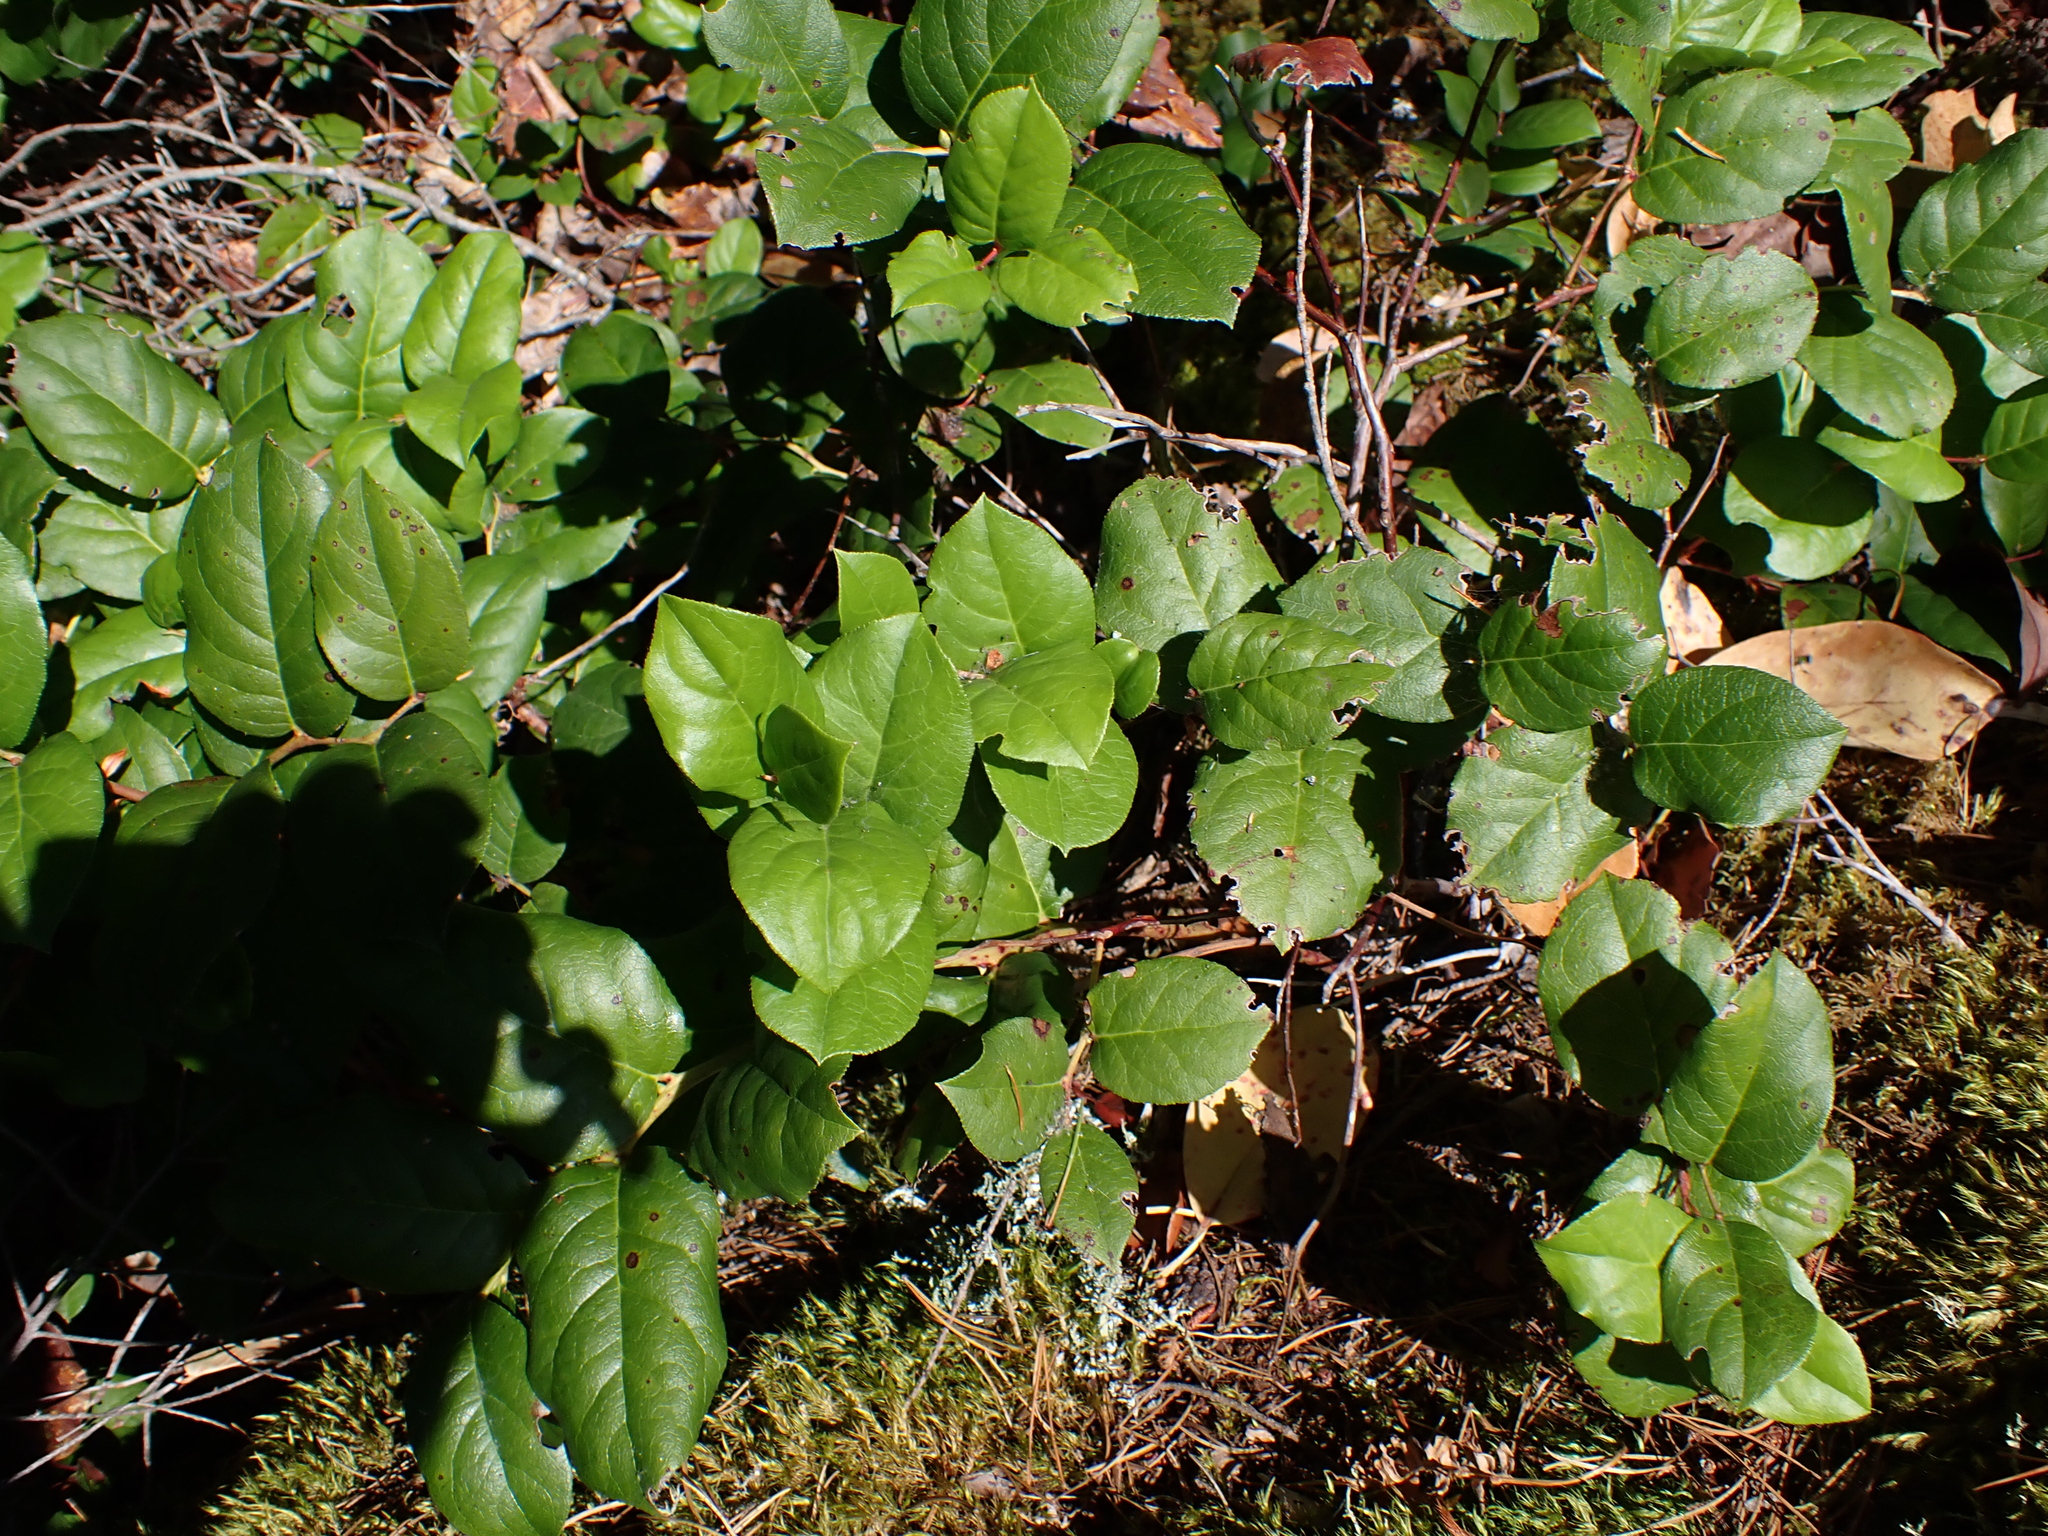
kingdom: Plantae
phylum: Tracheophyta
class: Magnoliopsida
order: Ericales
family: Ericaceae
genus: Gaultheria
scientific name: Gaultheria shallon
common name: Shallon
